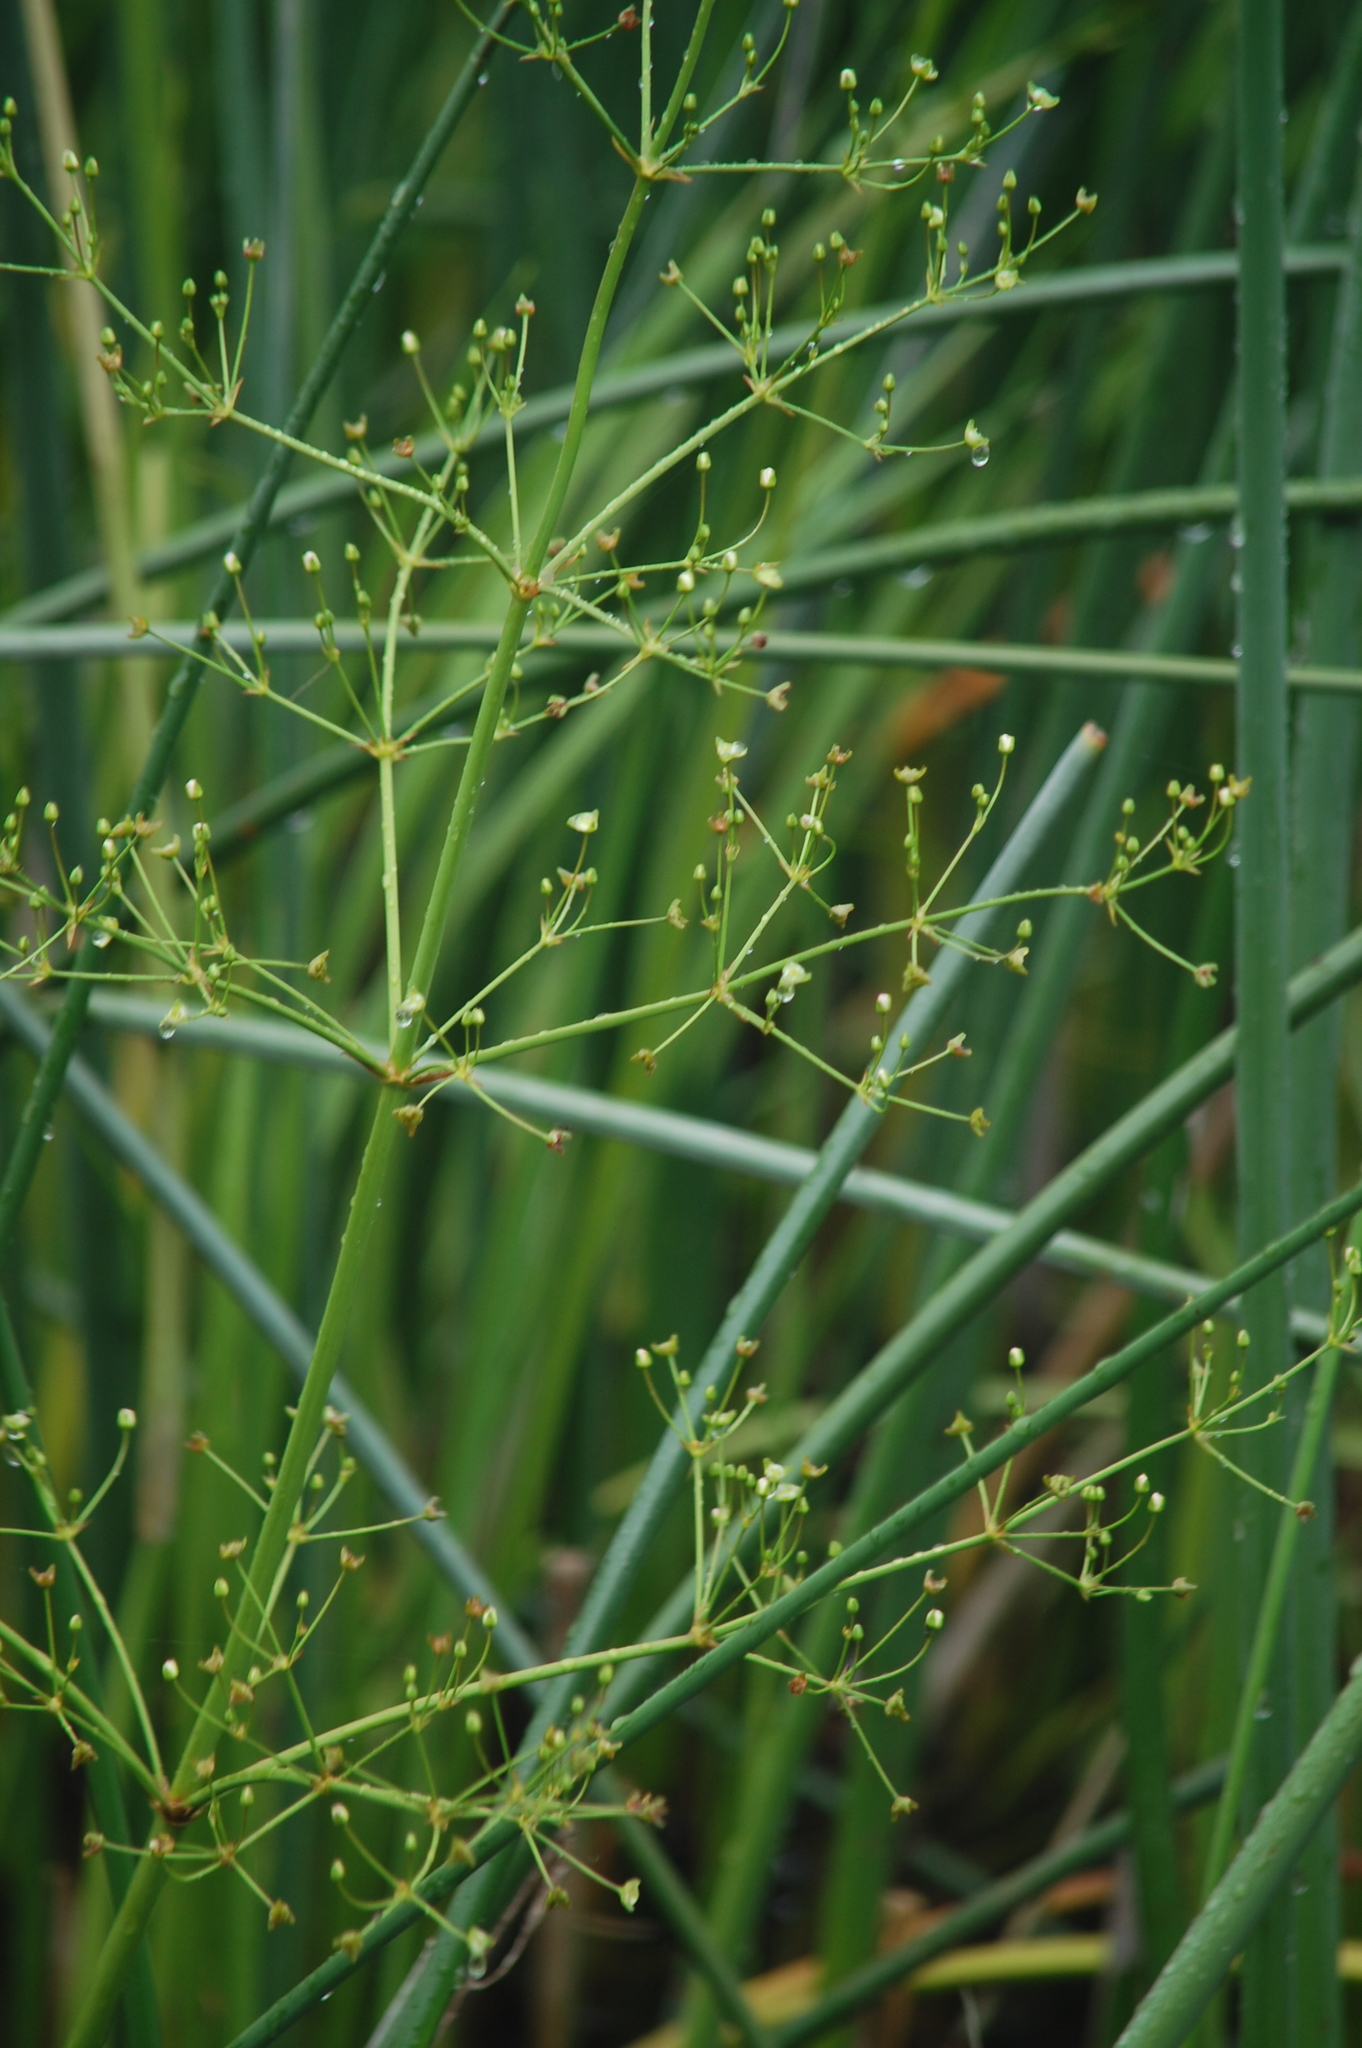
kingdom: Plantae
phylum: Tracheophyta
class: Liliopsida
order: Alismatales
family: Alismataceae
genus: Alisma
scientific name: Alisma plantago-aquatica
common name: Water-plantain
